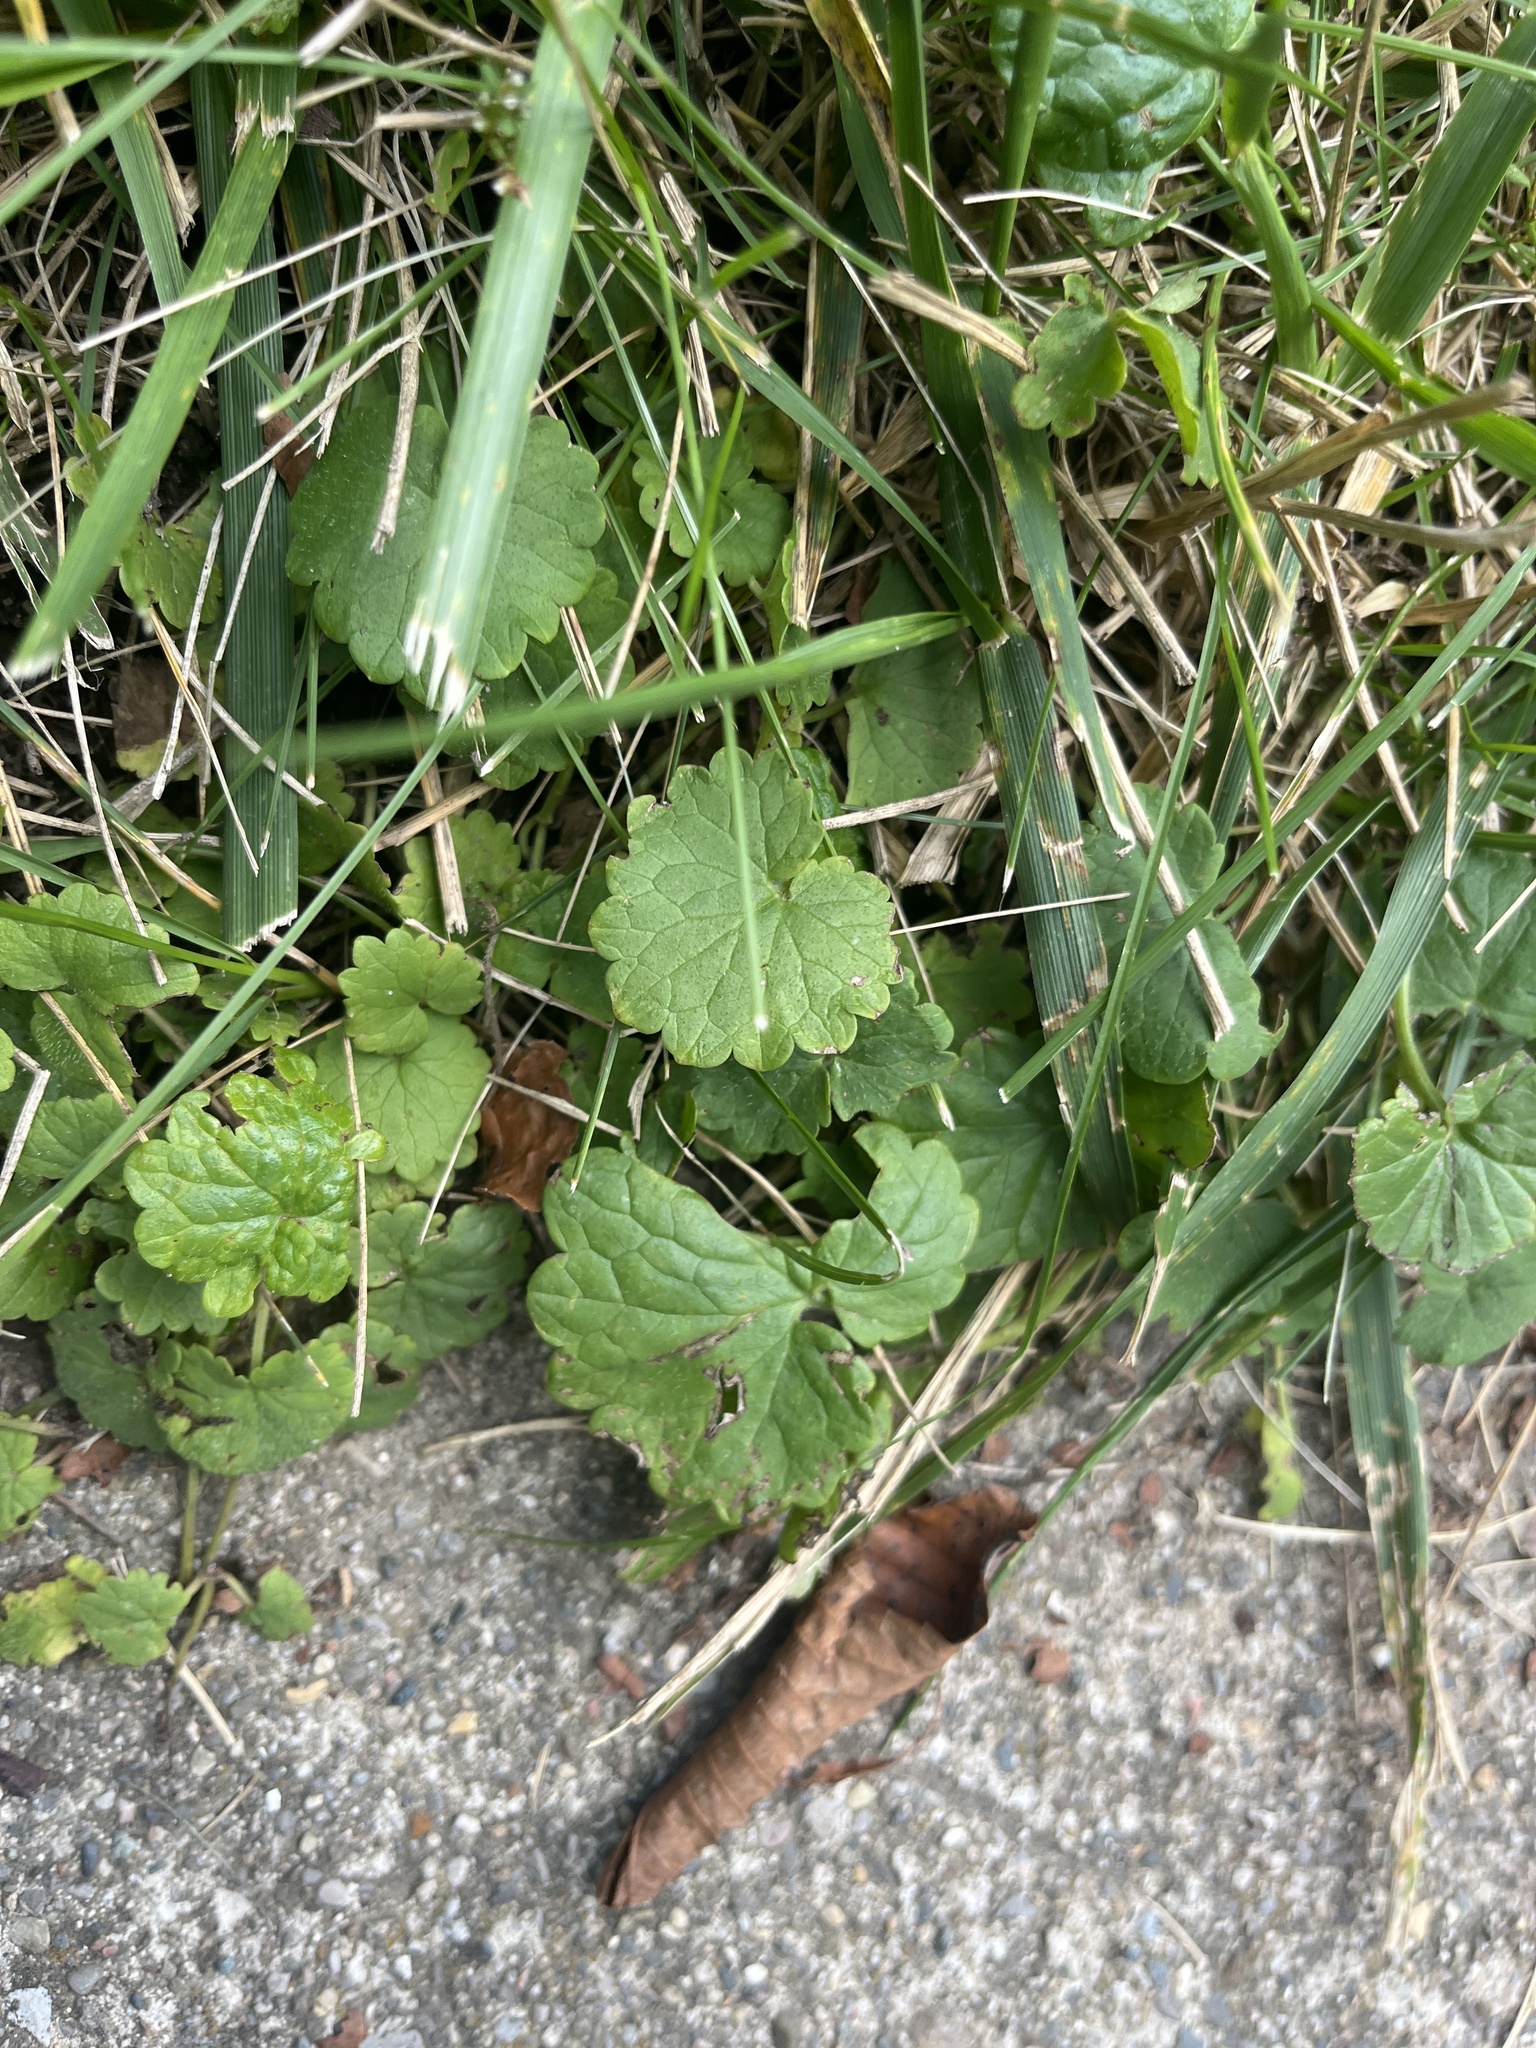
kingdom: Plantae
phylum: Tracheophyta
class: Magnoliopsida
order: Lamiales
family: Lamiaceae
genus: Glechoma
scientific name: Glechoma hederacea
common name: Ground ivy
